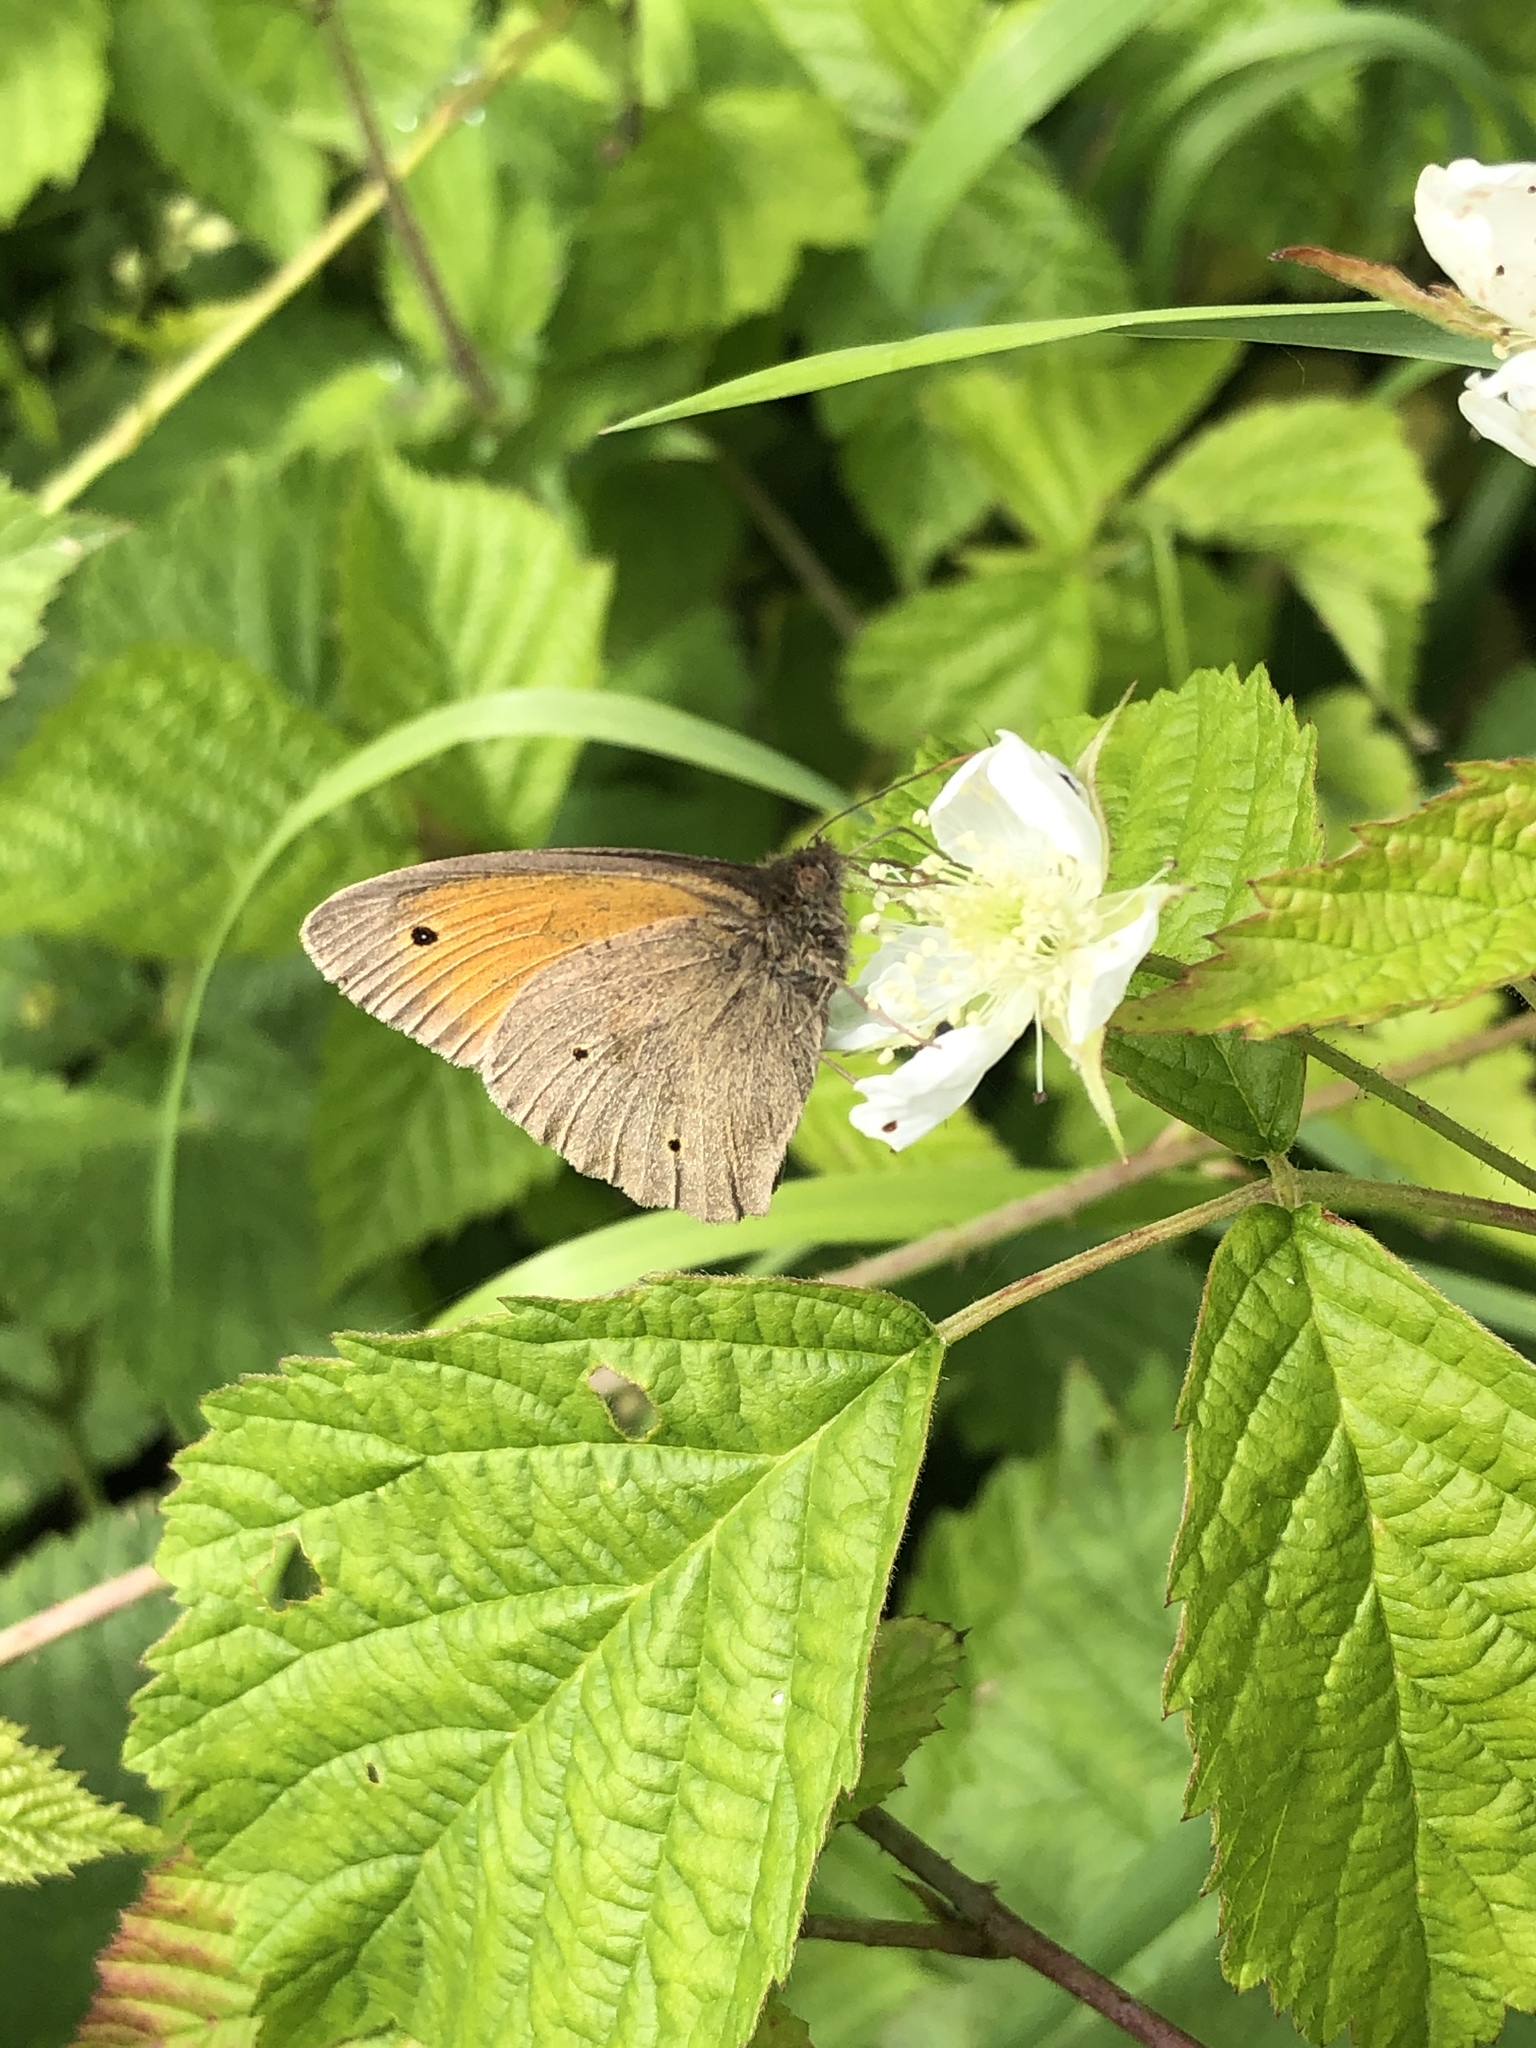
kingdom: Animalia
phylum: Arthropoda
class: Insecta
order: Lepidoptera
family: Nymphalidae
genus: Maniola
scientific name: Maniola jurtina
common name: Meadow brown
